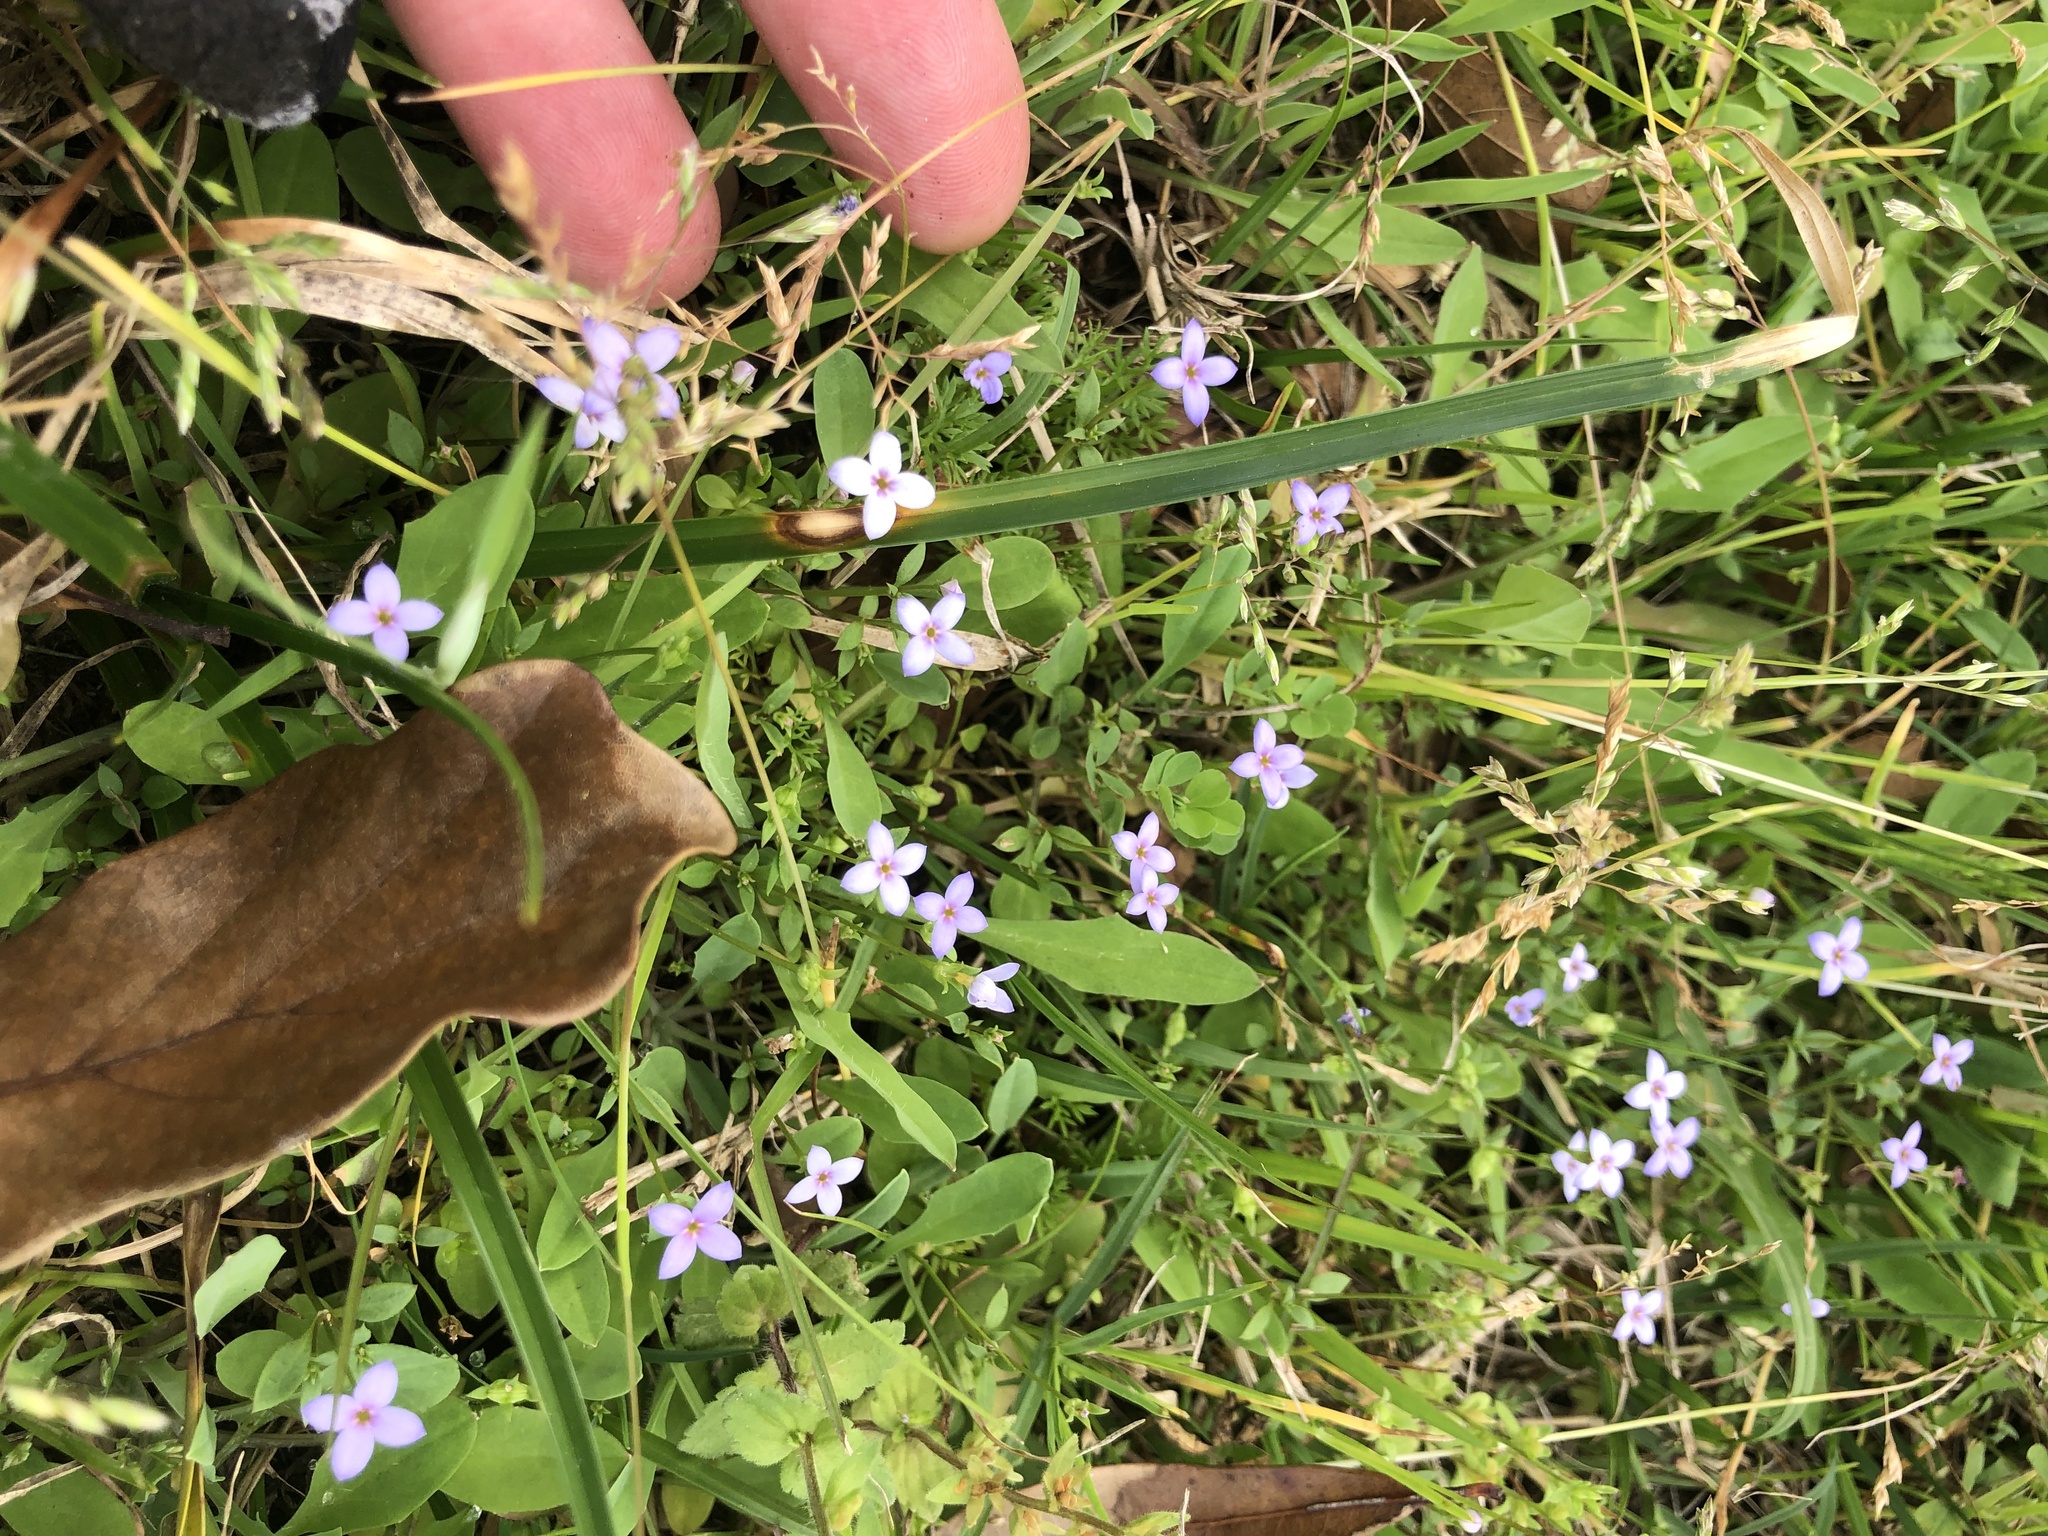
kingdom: Plantae
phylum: Tracheophyta
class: Magnoliopsida
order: Gentianales
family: Rubiaceae
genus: Houstonia
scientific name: Houstonia pusilla
